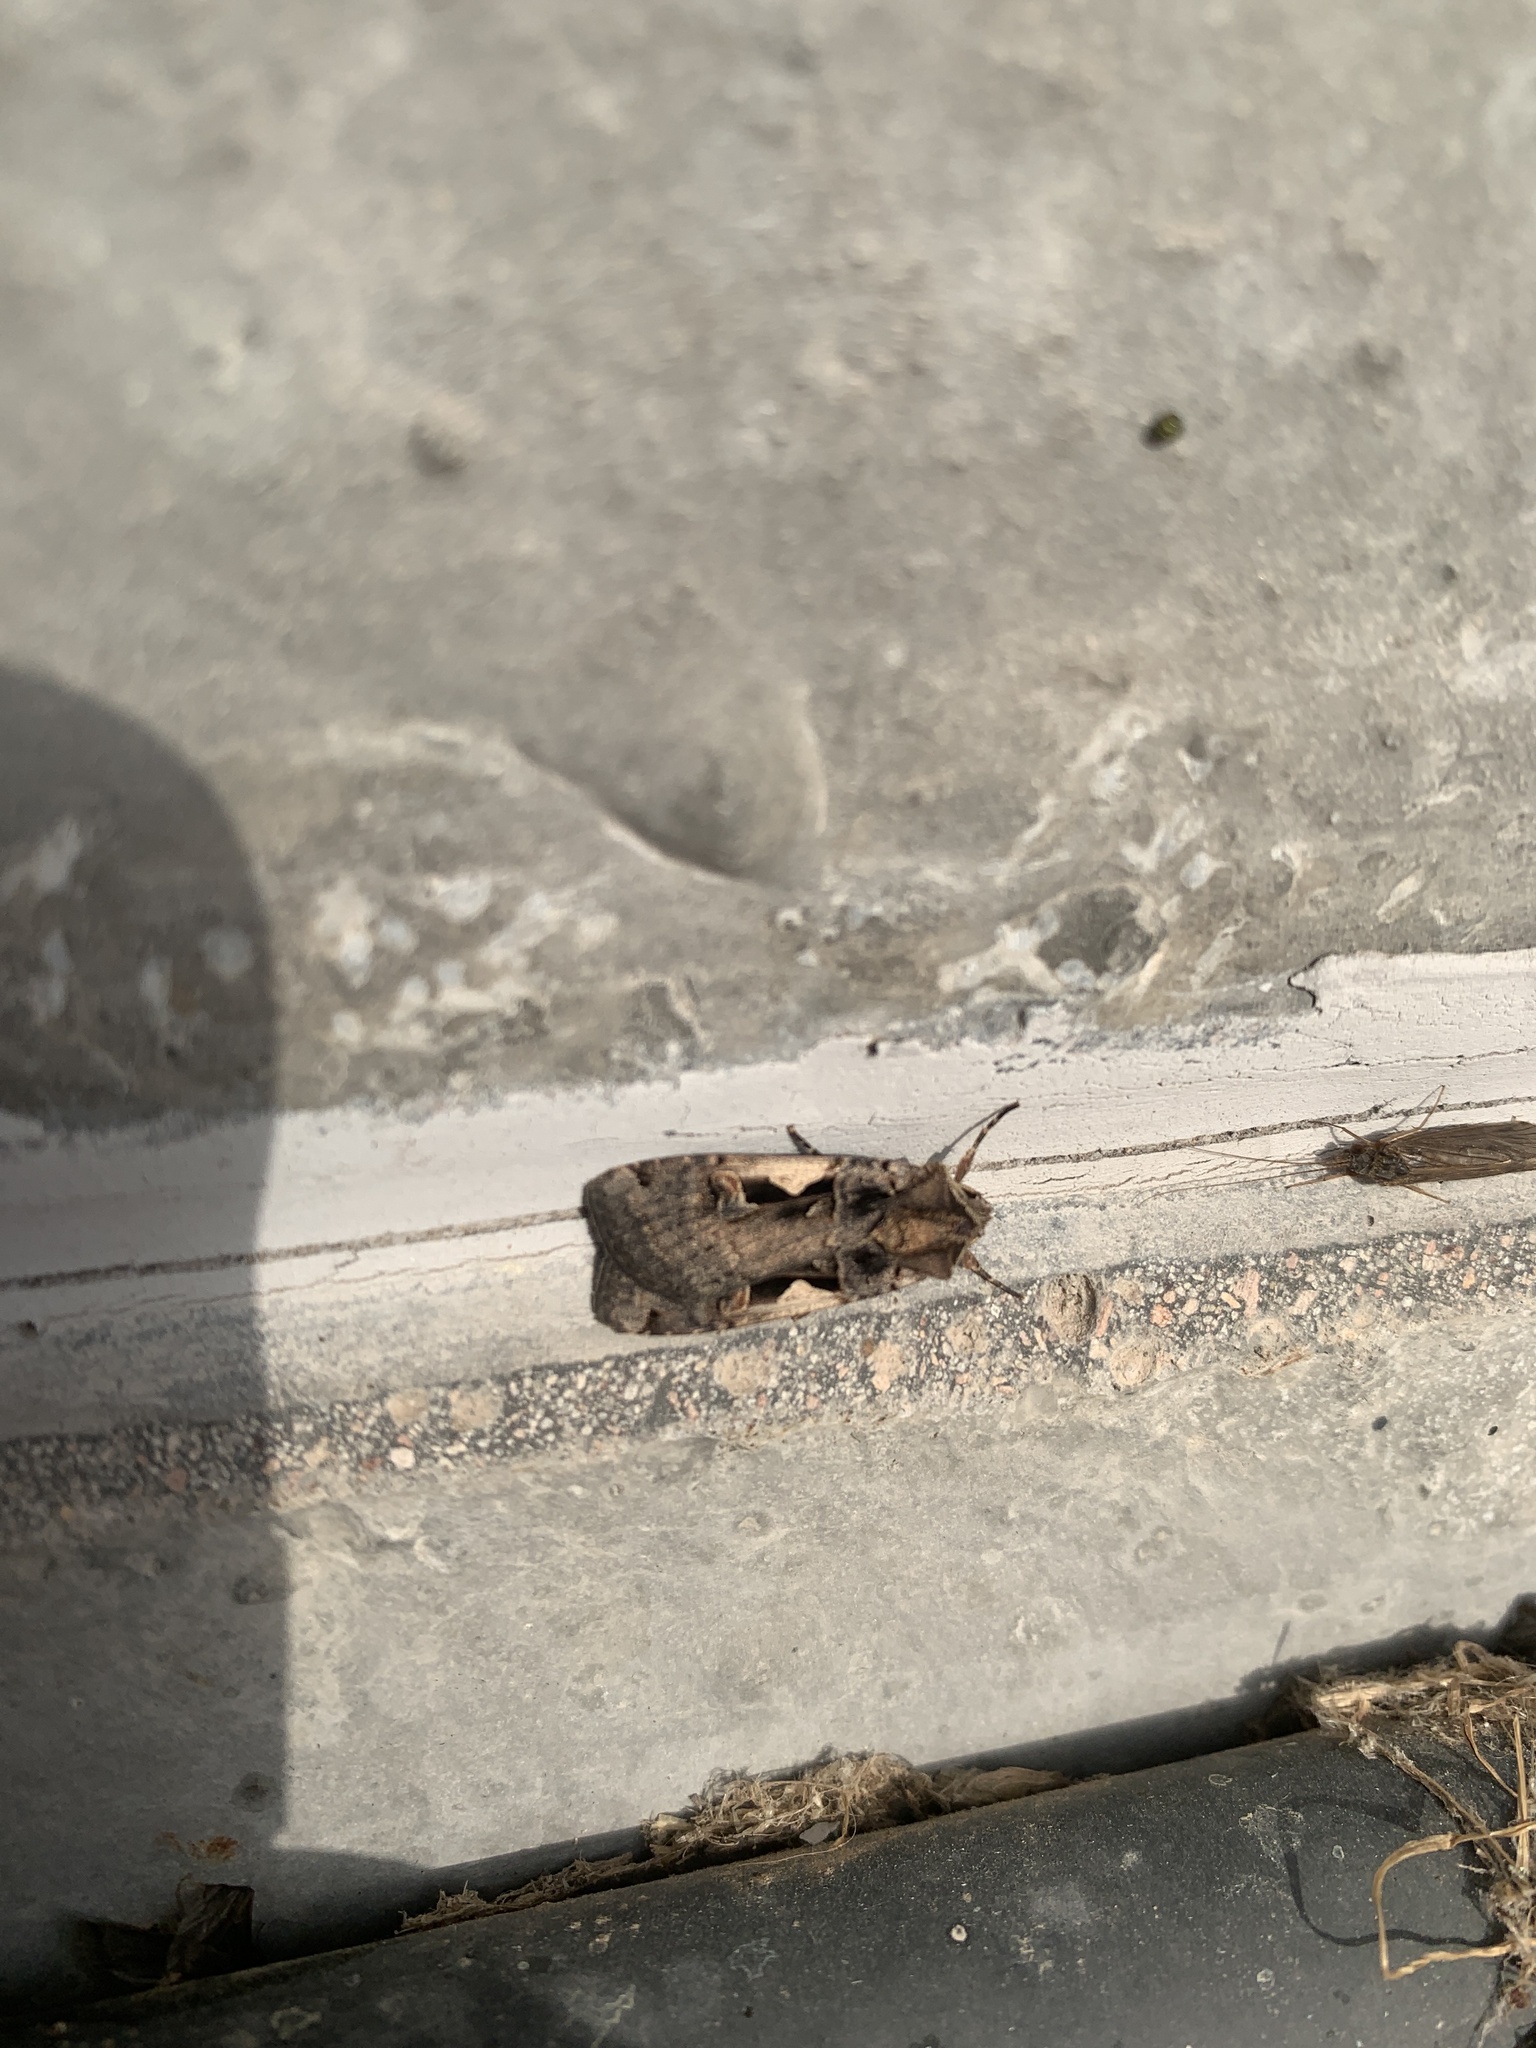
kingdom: Animalia
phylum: Arthropoda
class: Insecta
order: Lepidoptera
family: Noctuidae
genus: Xestia
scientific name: Xestia c-nigrum
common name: Setaceous hebrew character
